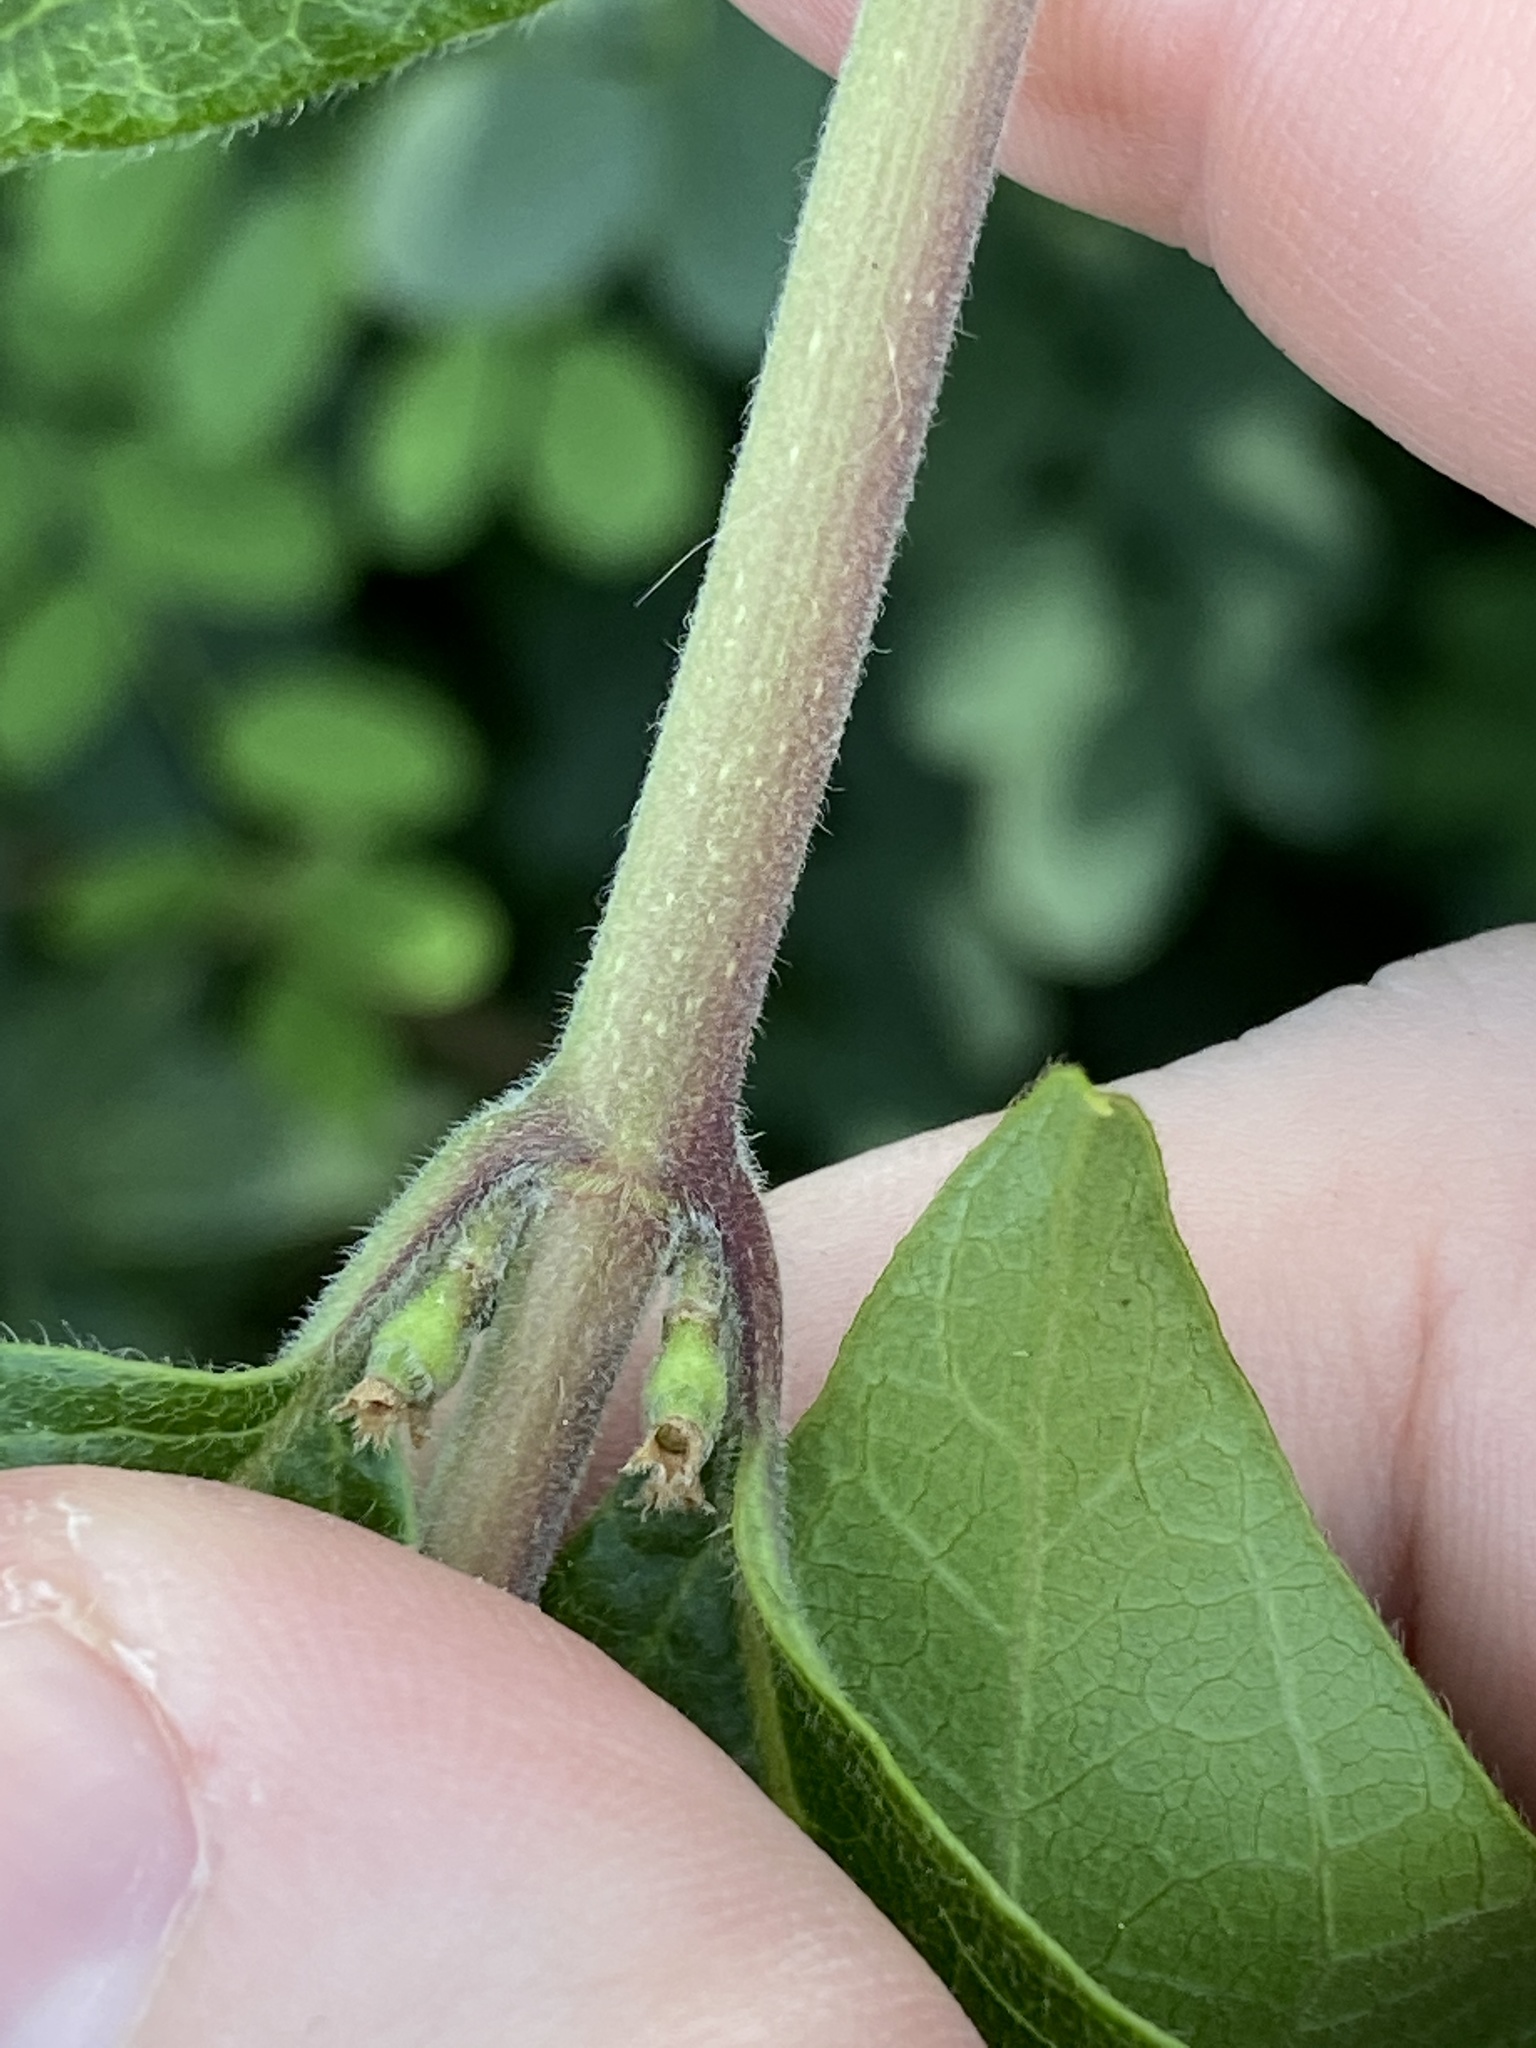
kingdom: Plantae
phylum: Tracheophyta
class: Magnoliopsida
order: Dipsacales
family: Caprifoliaceae
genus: Lonicera
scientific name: Lonicera maackii
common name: Amur honeysuckle
